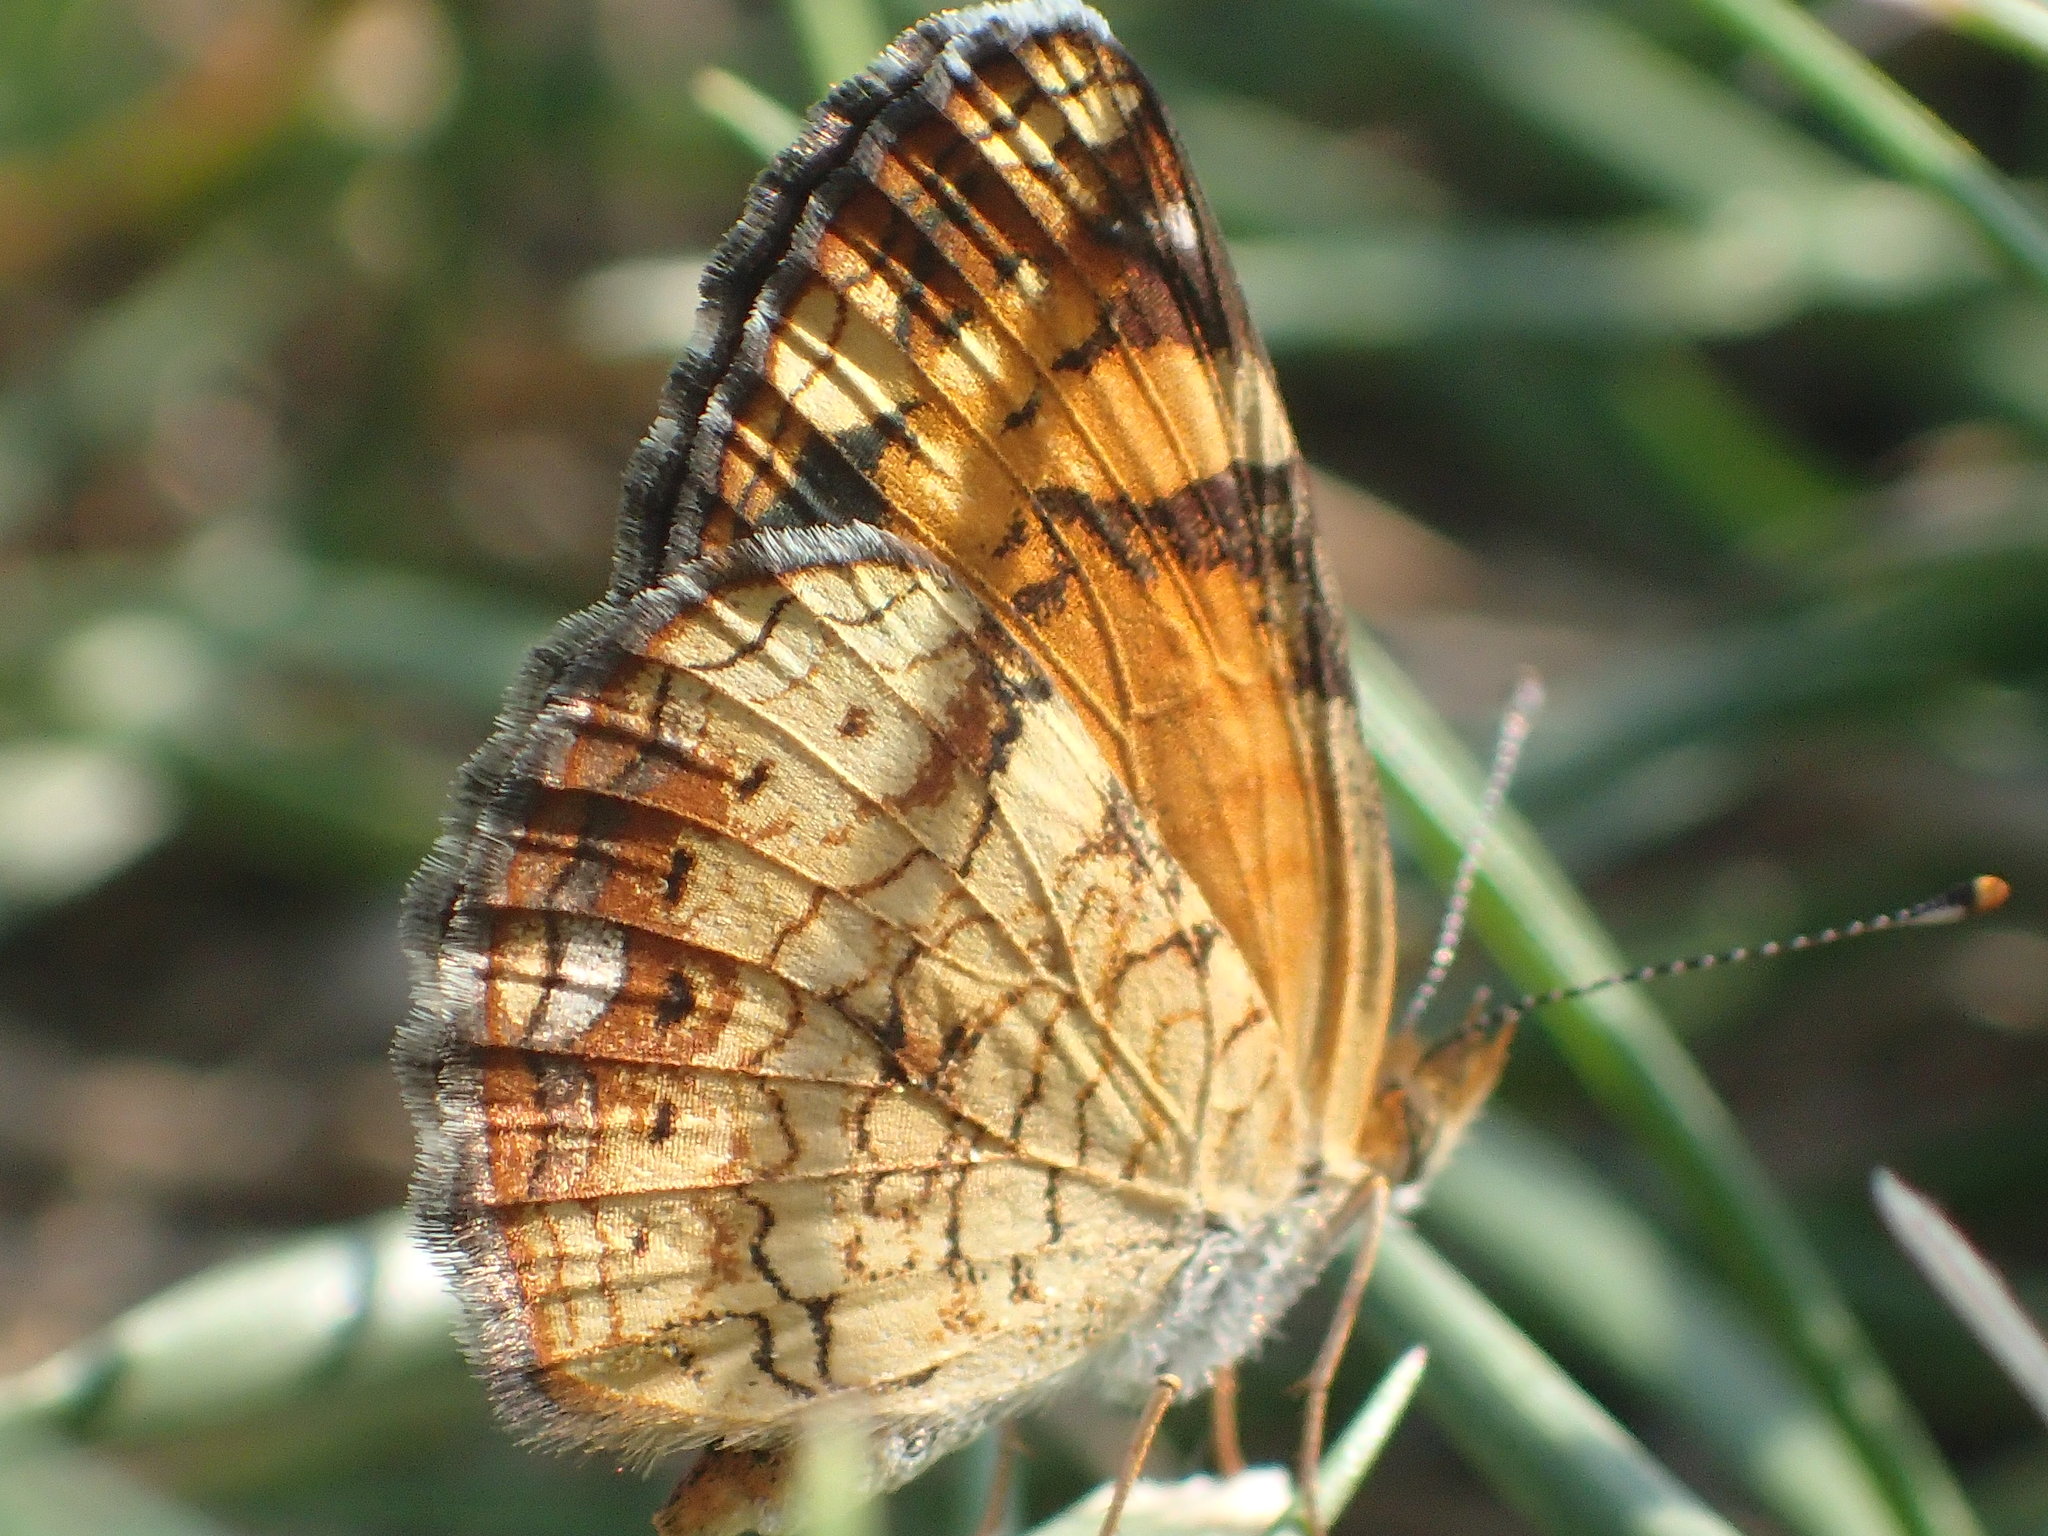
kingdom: Animalia
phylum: Arthropoda
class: Insecta
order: Lepidoptera
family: Nymphalidae
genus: Phyciodes
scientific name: Phyciodes tharos
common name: Pearl crescent
